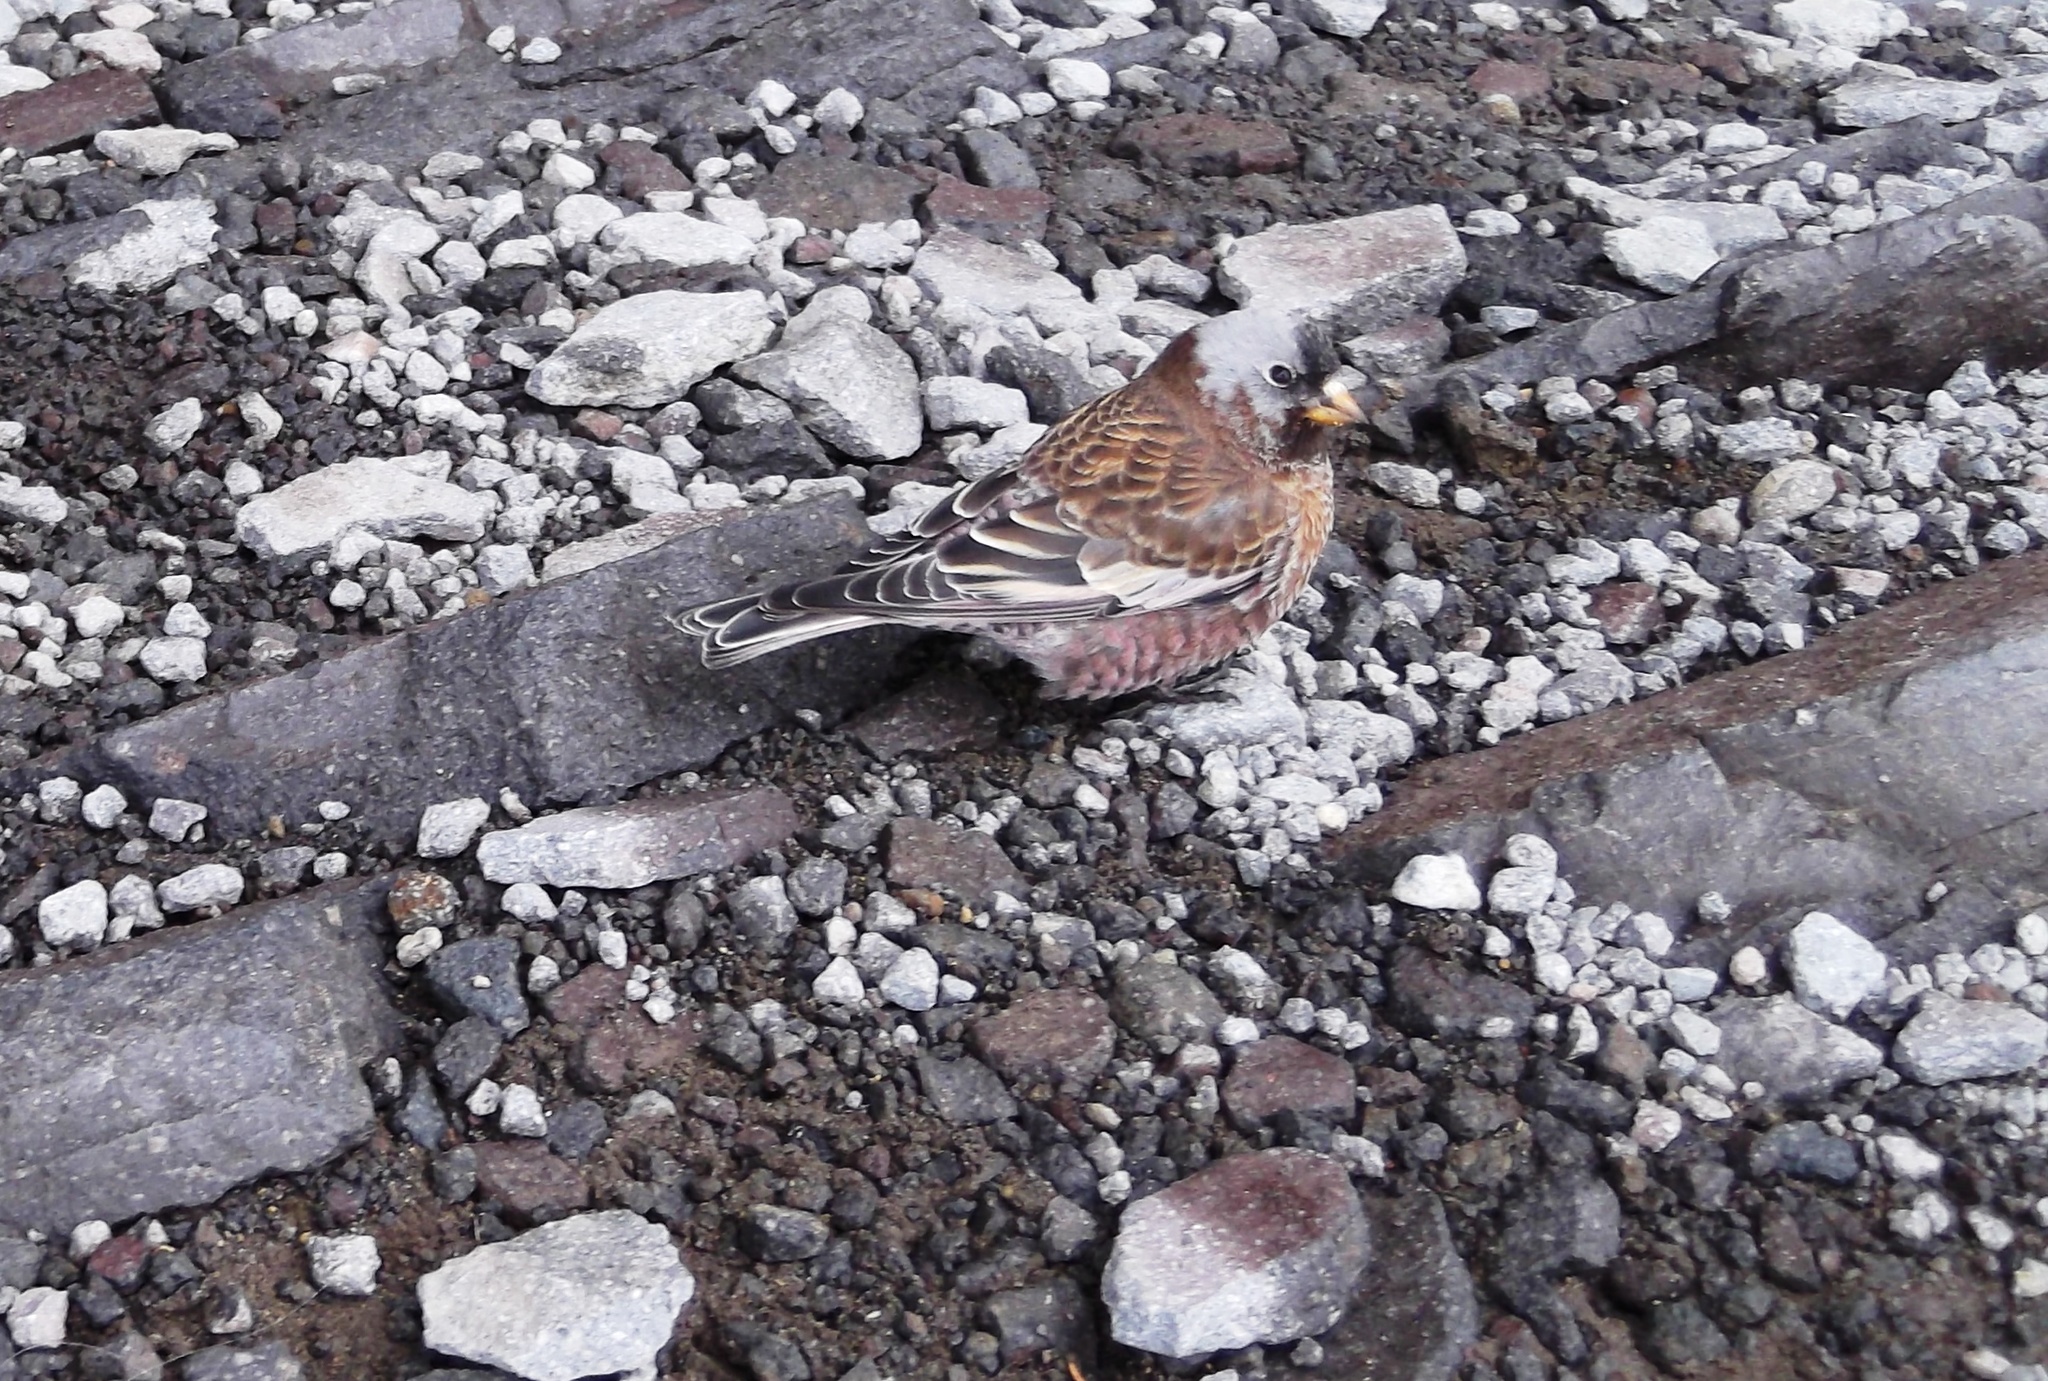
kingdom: Animalia
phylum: Chordata
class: Aves
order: Passeriformes
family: Fringillidae
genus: Leucosticte
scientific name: Leucosticte tephrocotis
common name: Gray-crowned rosy-finch
